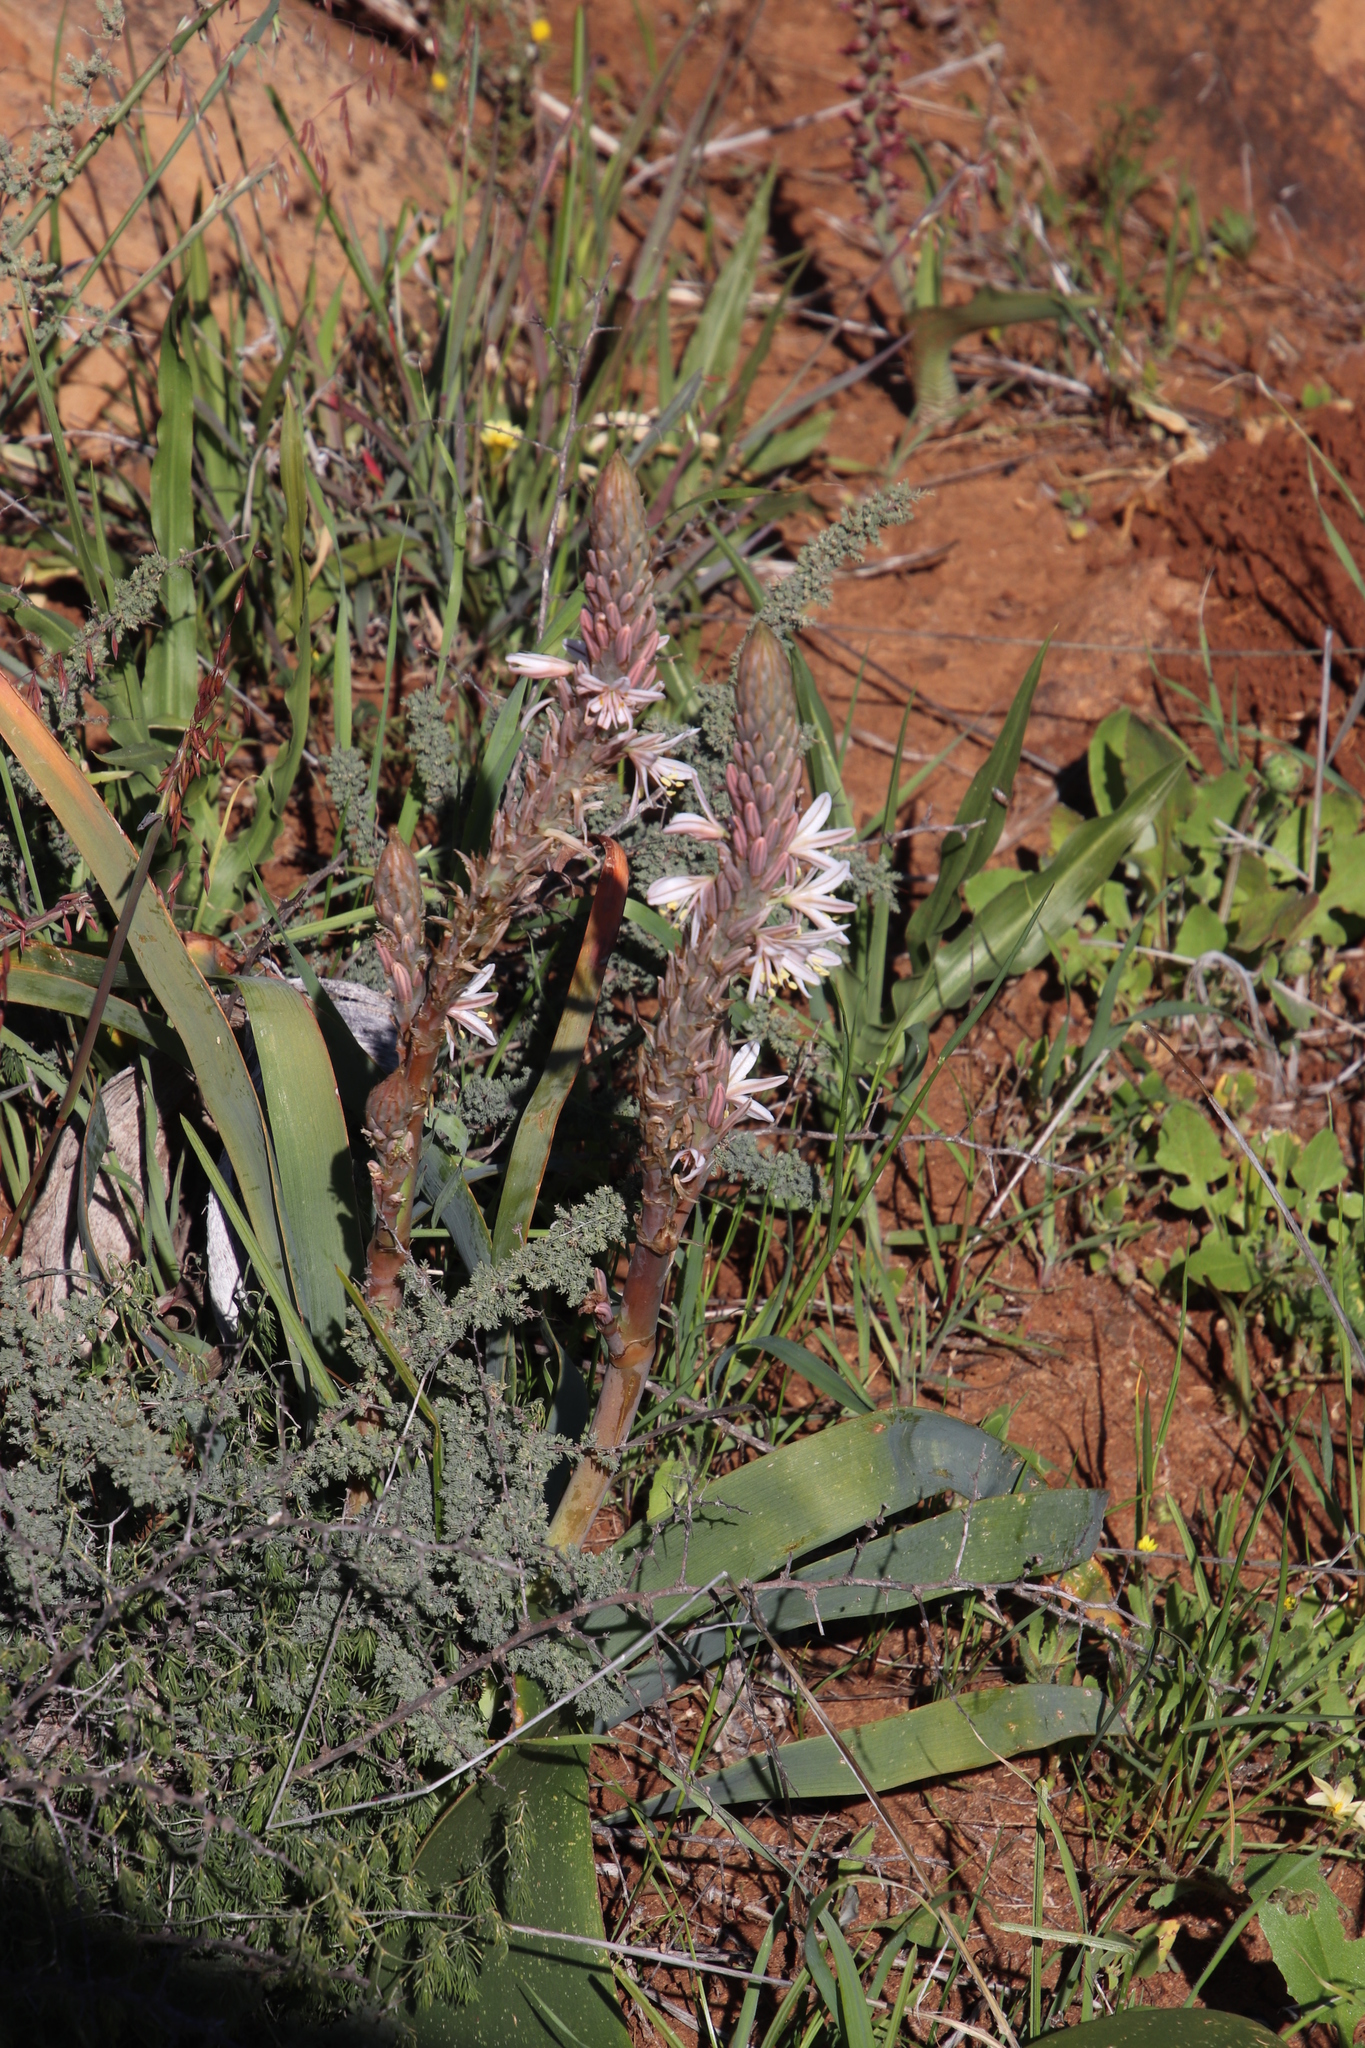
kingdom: Plantae
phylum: Tracheophyta
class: Liliopsida
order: Asparagales
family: Asphodelaceae
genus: Trachyandra
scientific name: Trachyandra falcata
